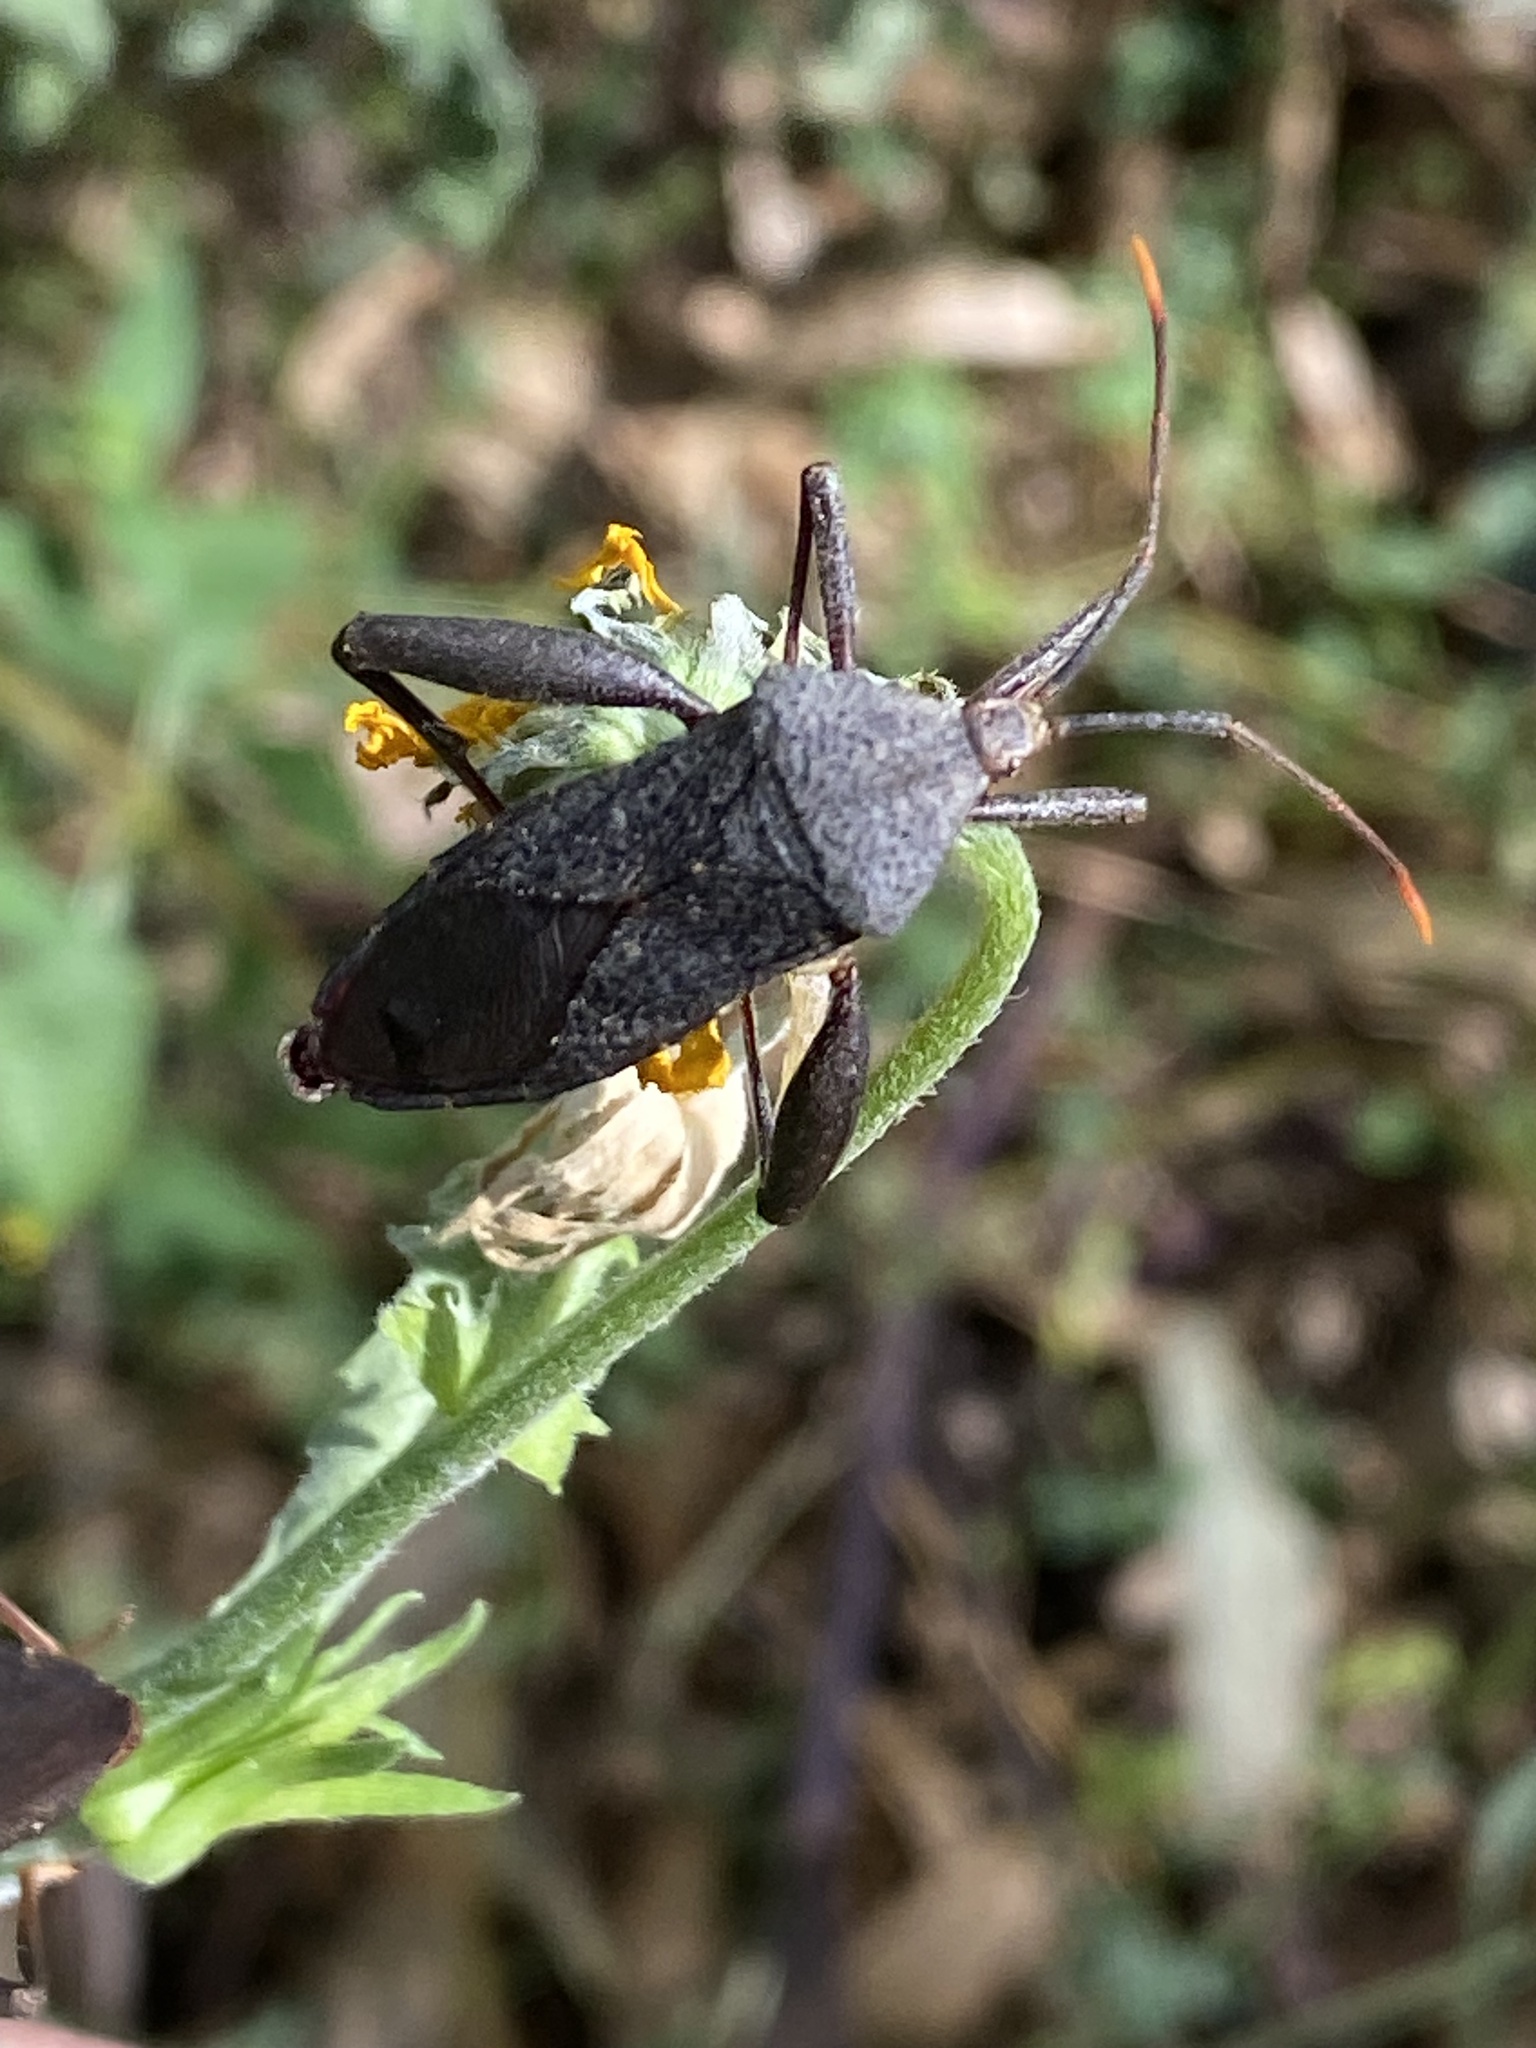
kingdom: Animalia
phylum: Arthropoda
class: Insecta
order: Hemiptera
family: Coreidae
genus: Mictis
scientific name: Mictis caja
